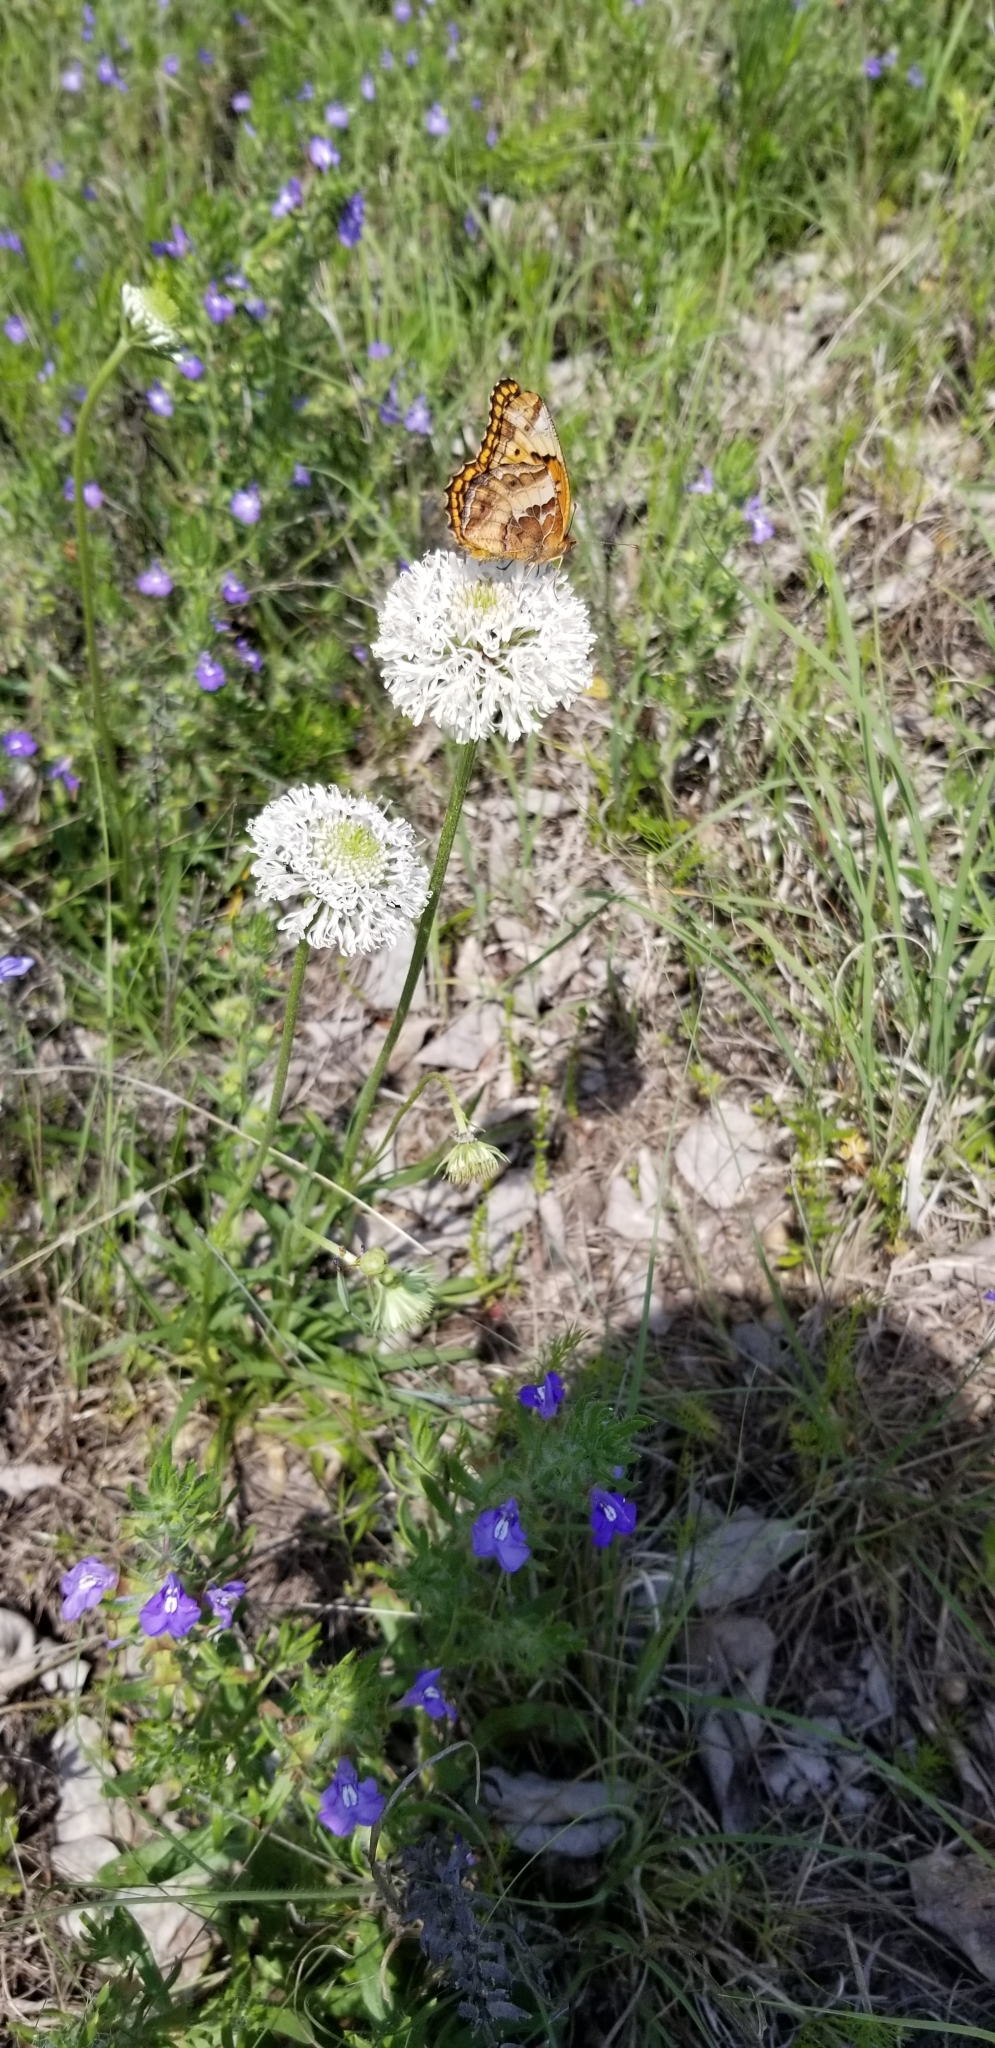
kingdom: Animalia
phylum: Arthropoda
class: Insecta
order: Lepidoptera
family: Nymphalidae
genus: Euptoieta
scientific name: Euptoieta claudia
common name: Variegated fritillary
